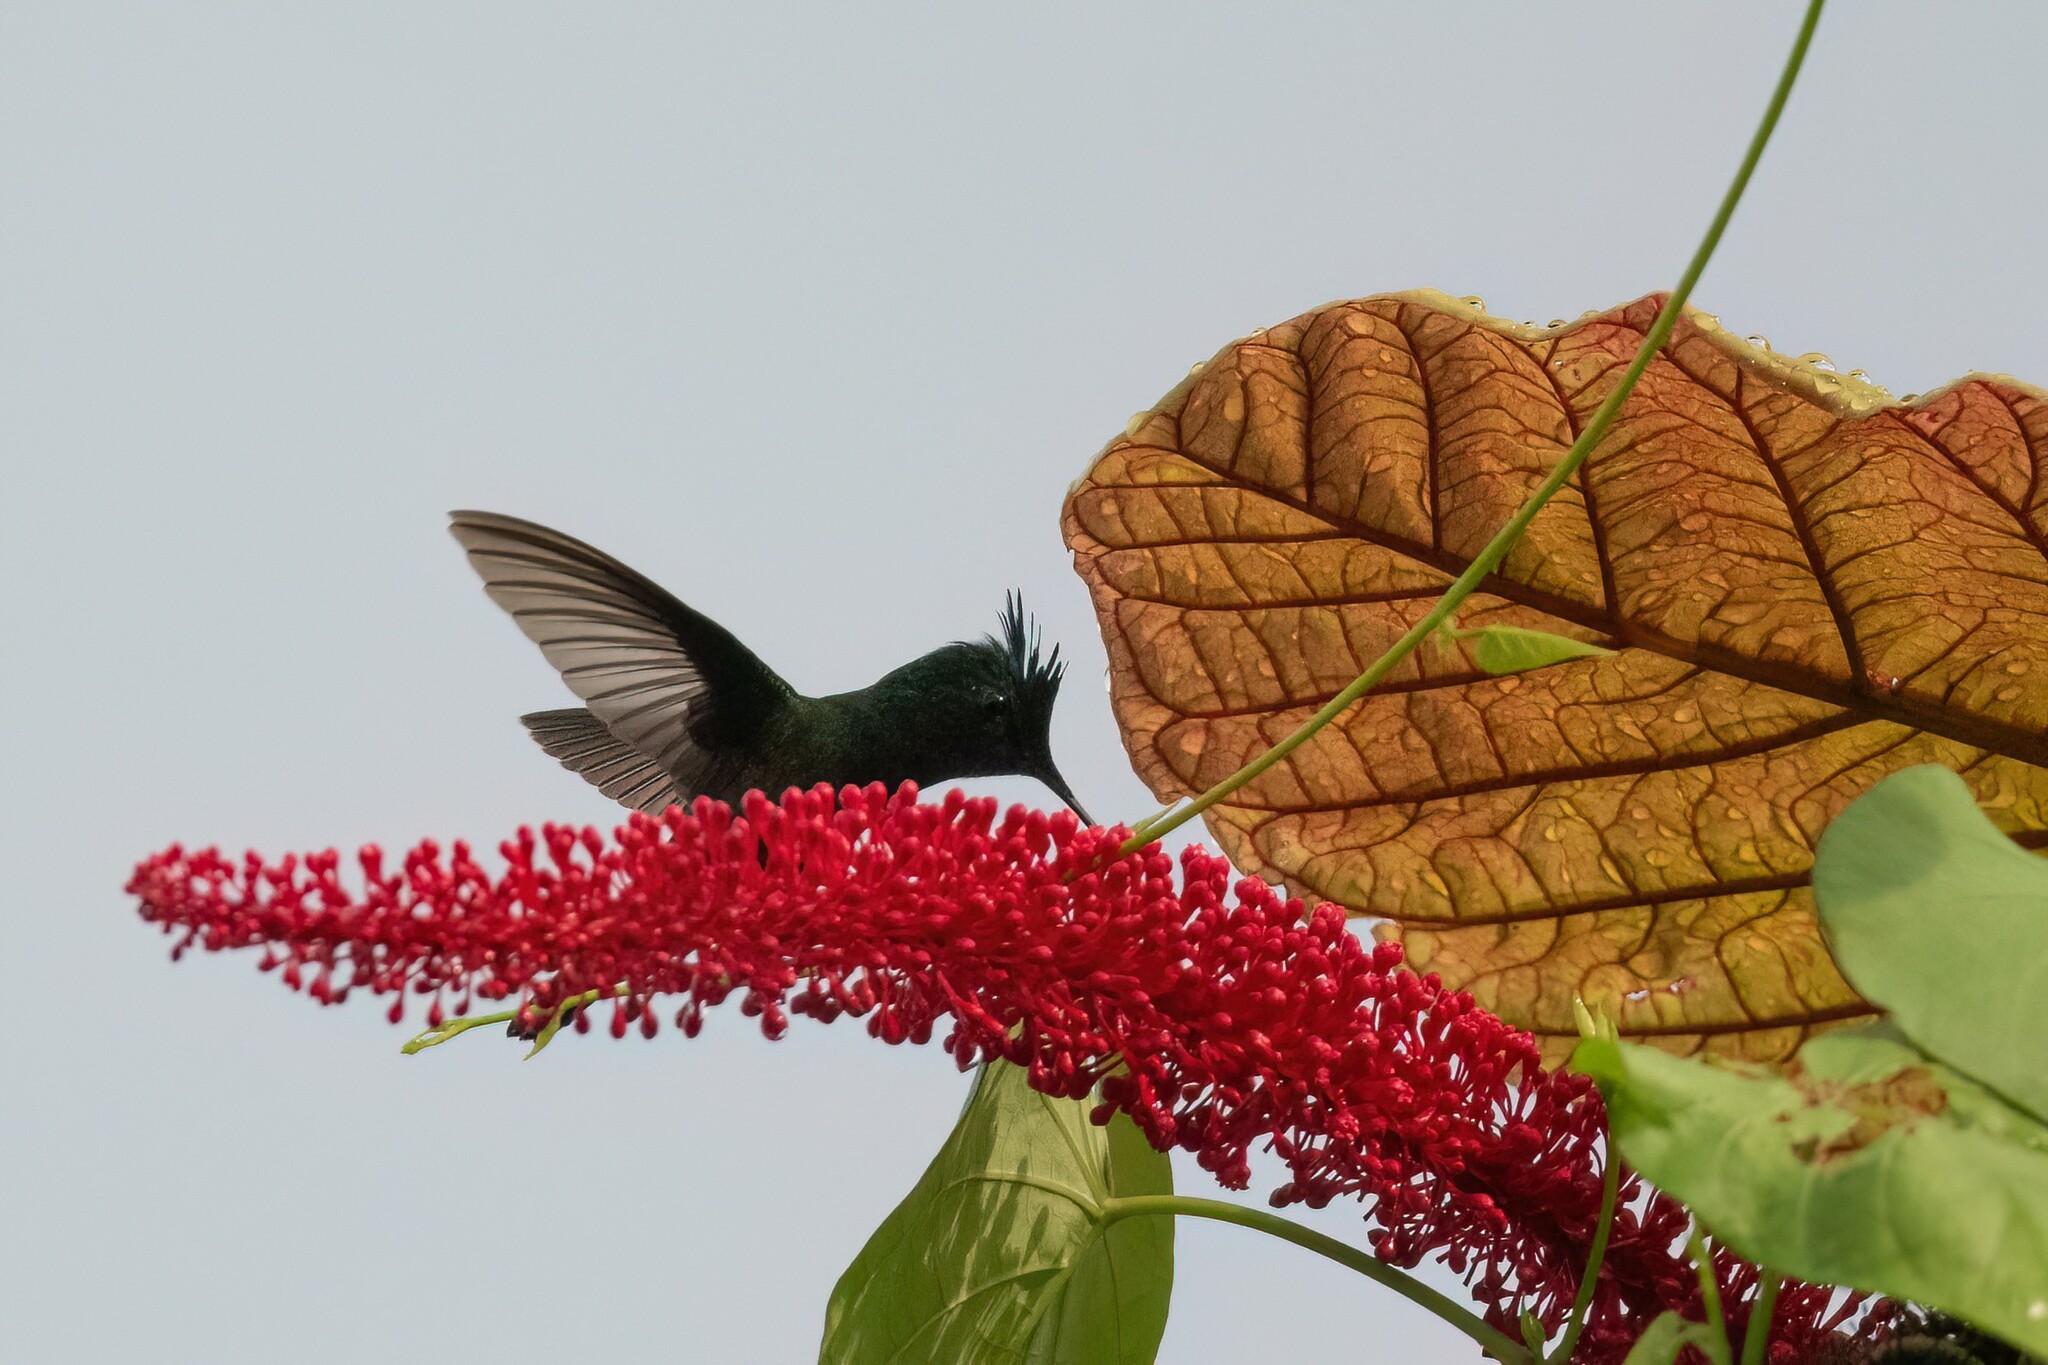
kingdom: Animalia
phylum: Chordata
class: Aves
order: Apodiformes
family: Trochilidae
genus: Orthorhyncus
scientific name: Orthorhyncus cristatus
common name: Antillean crested hummingbird
